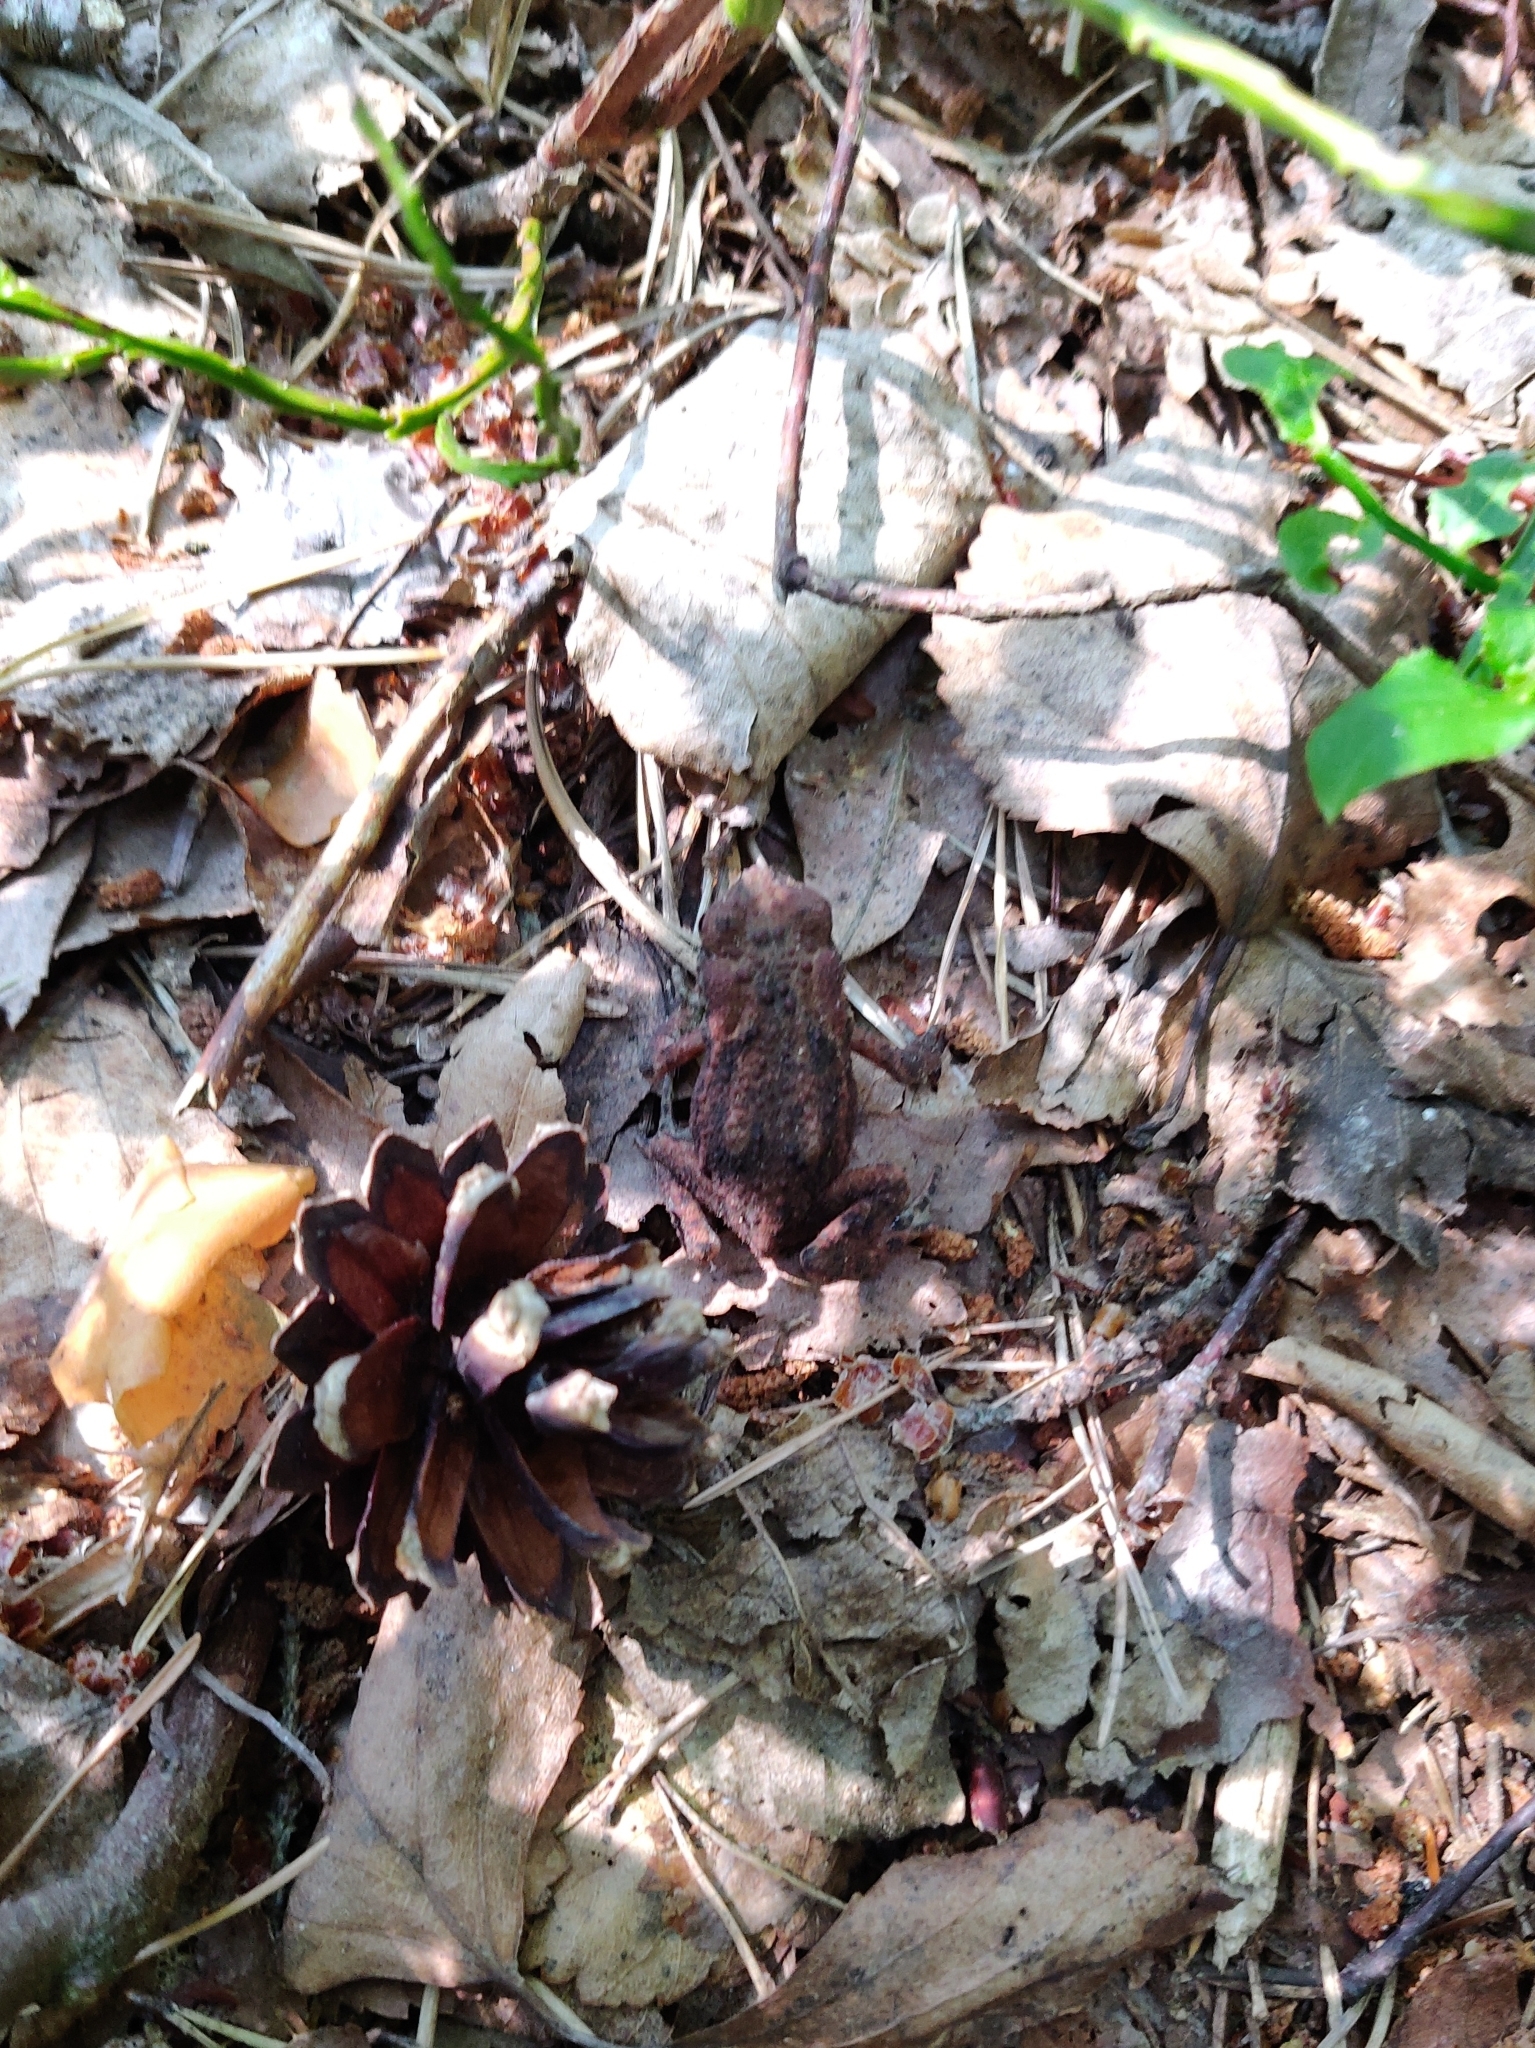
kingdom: Animalia
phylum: Chordata
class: Amphibia
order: Anura
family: Bufonidae
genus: Bufo
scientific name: Bufo bufo
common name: Common toad
